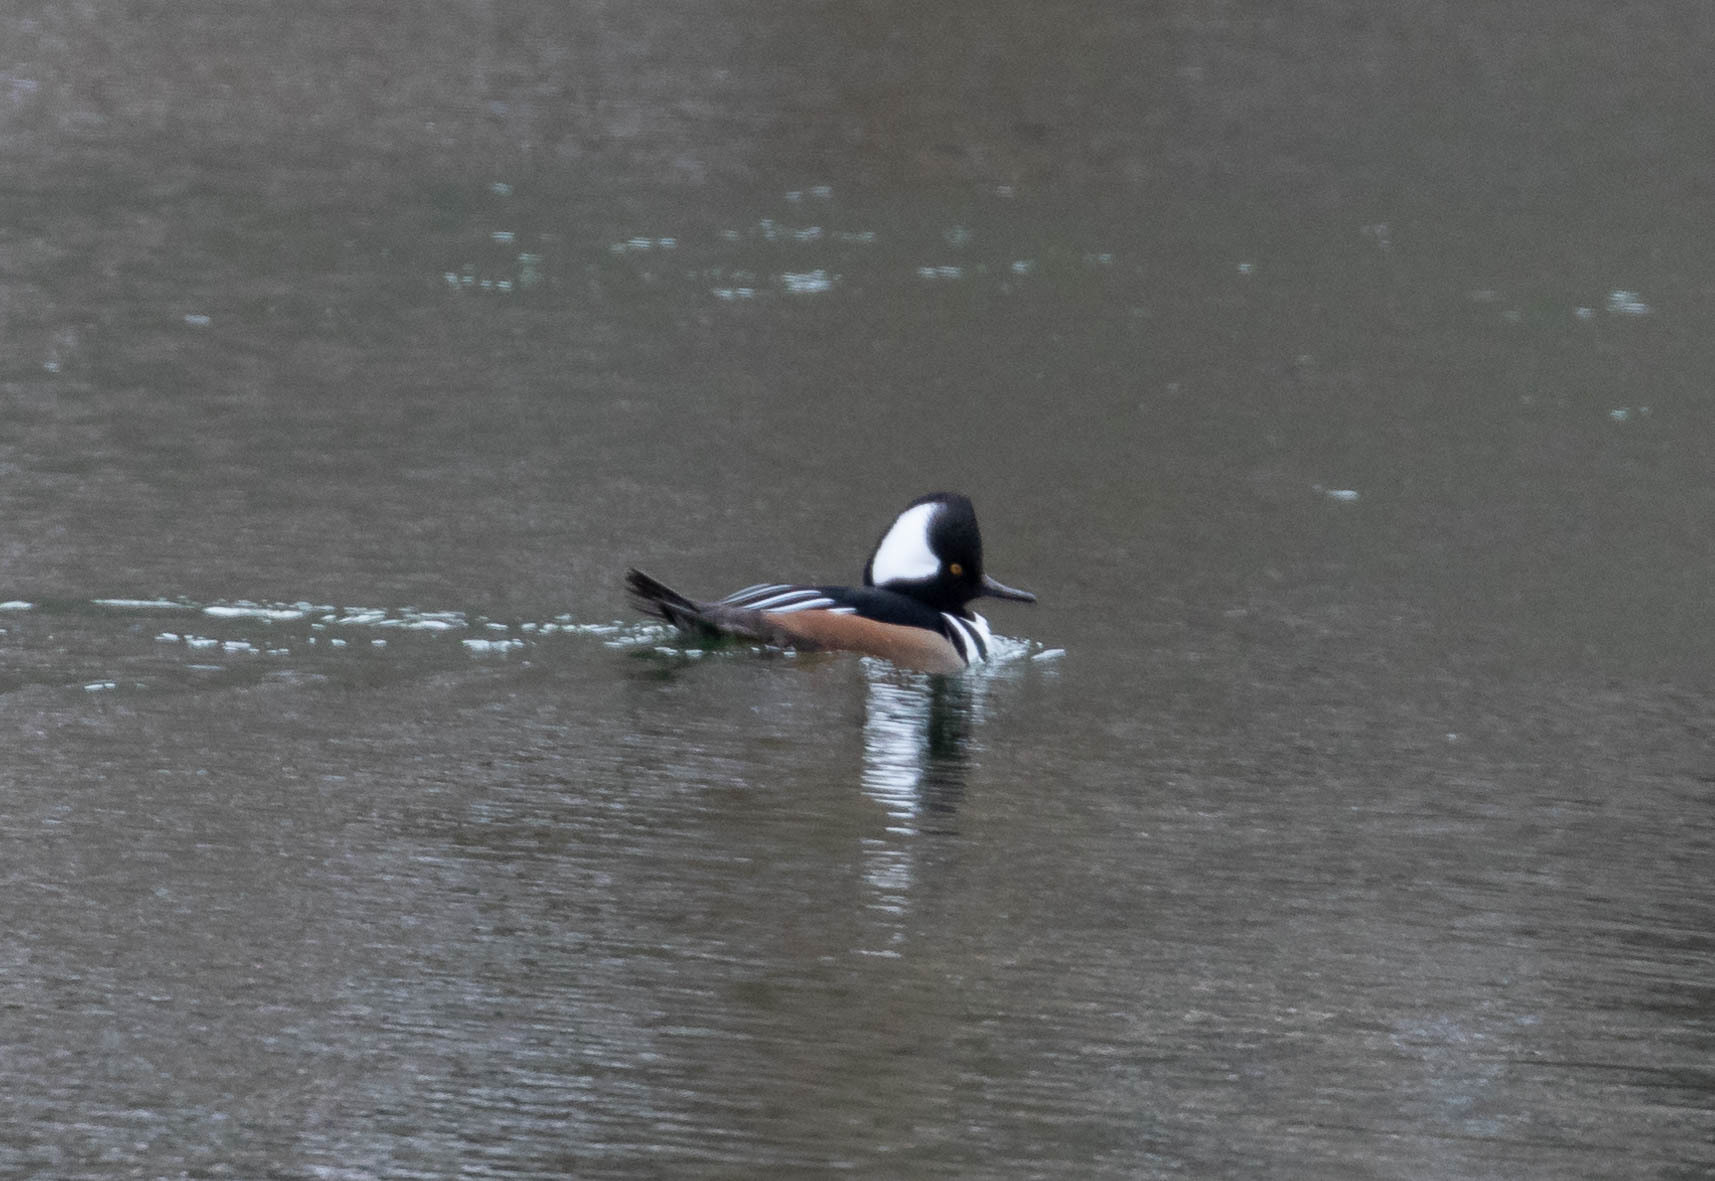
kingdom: Animalia
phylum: Chordata
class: Aves
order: Anseriformes
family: Anatidae
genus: Lophodytes
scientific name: Lophodytes cucullatus
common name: Hooded merganser
